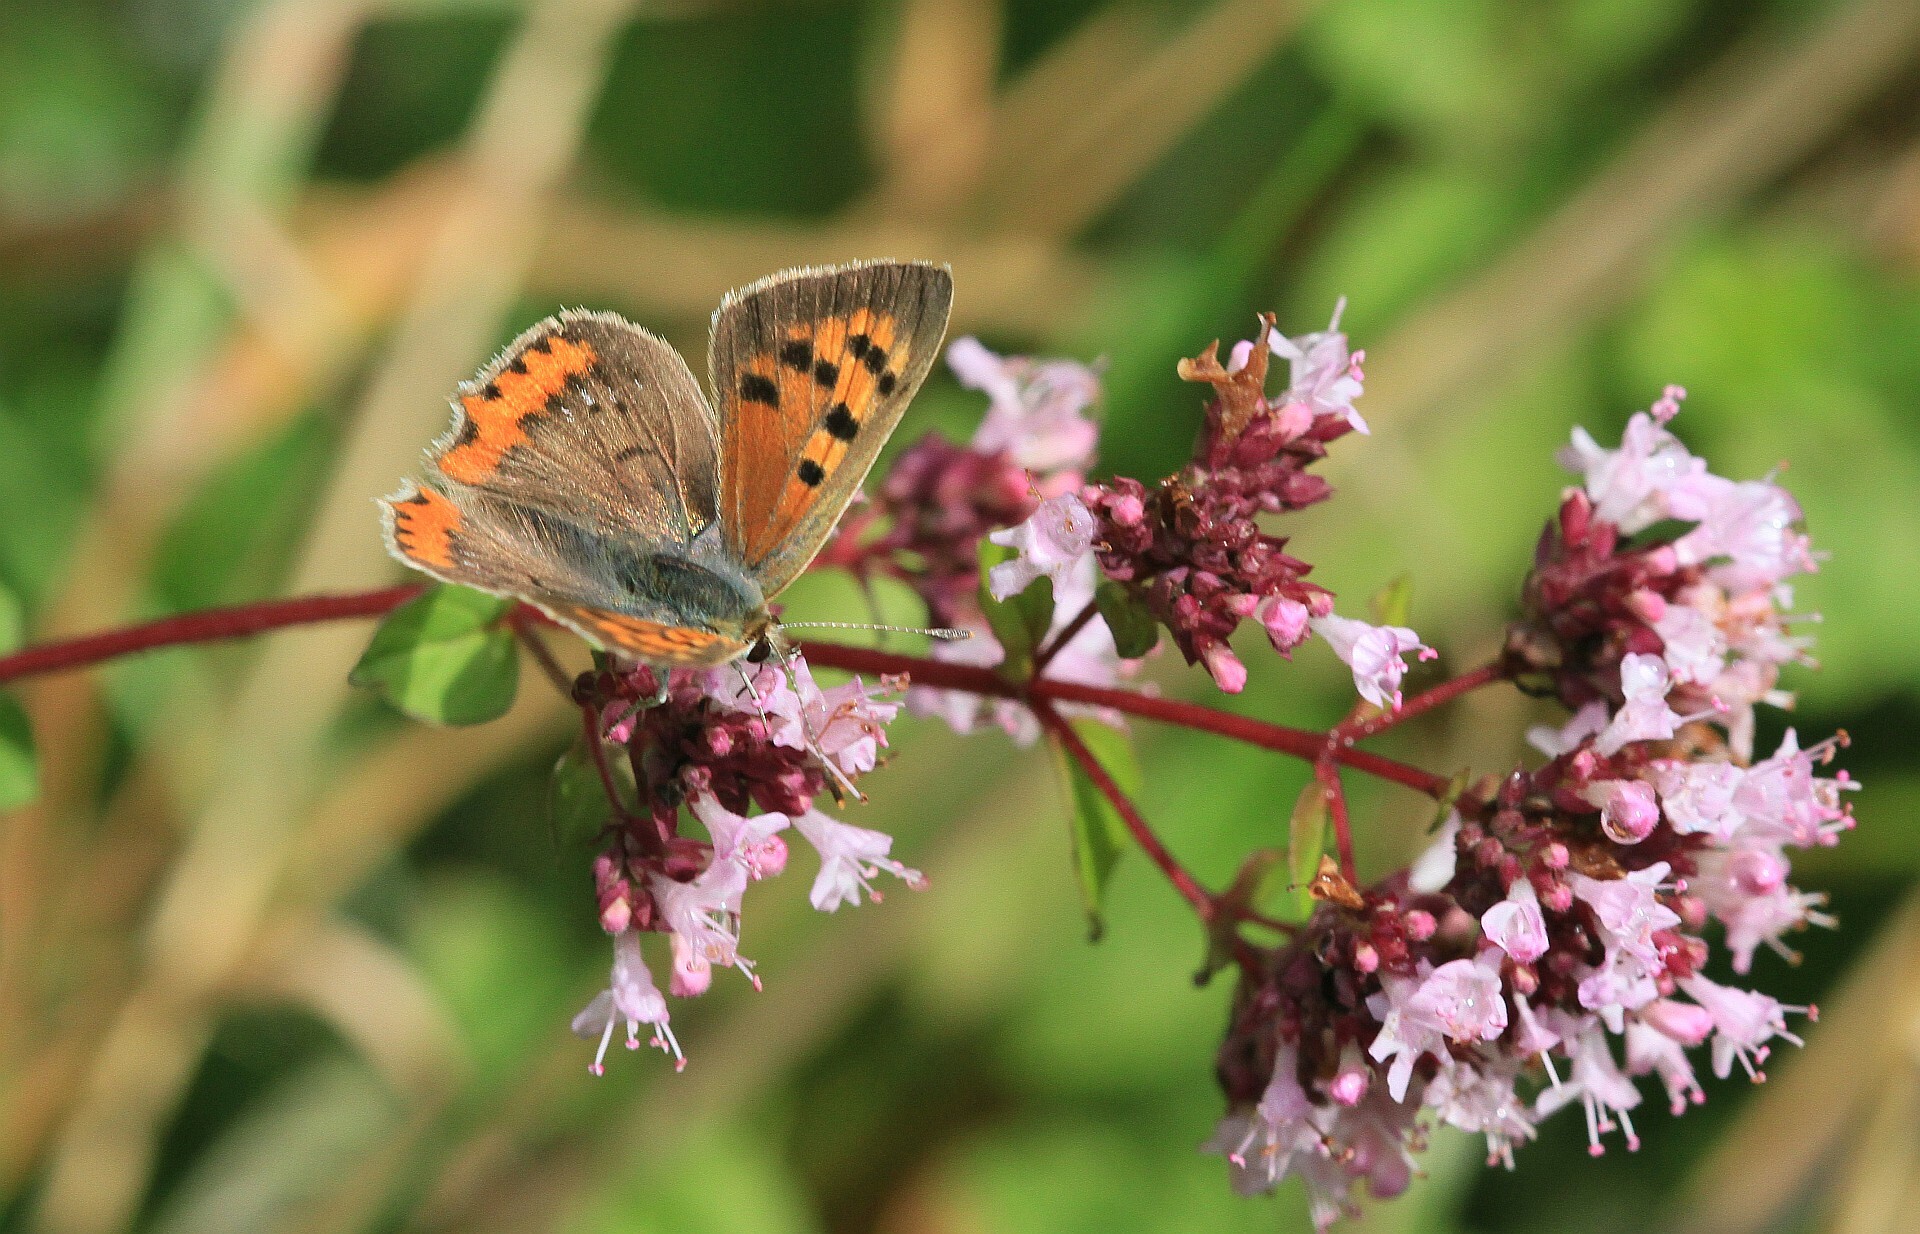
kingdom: Animalia
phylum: Arthropoda
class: Insecta
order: Lepidoptera
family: Lycaenidae
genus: Lycaena
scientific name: Lycaena phlaeas
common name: Small copper
